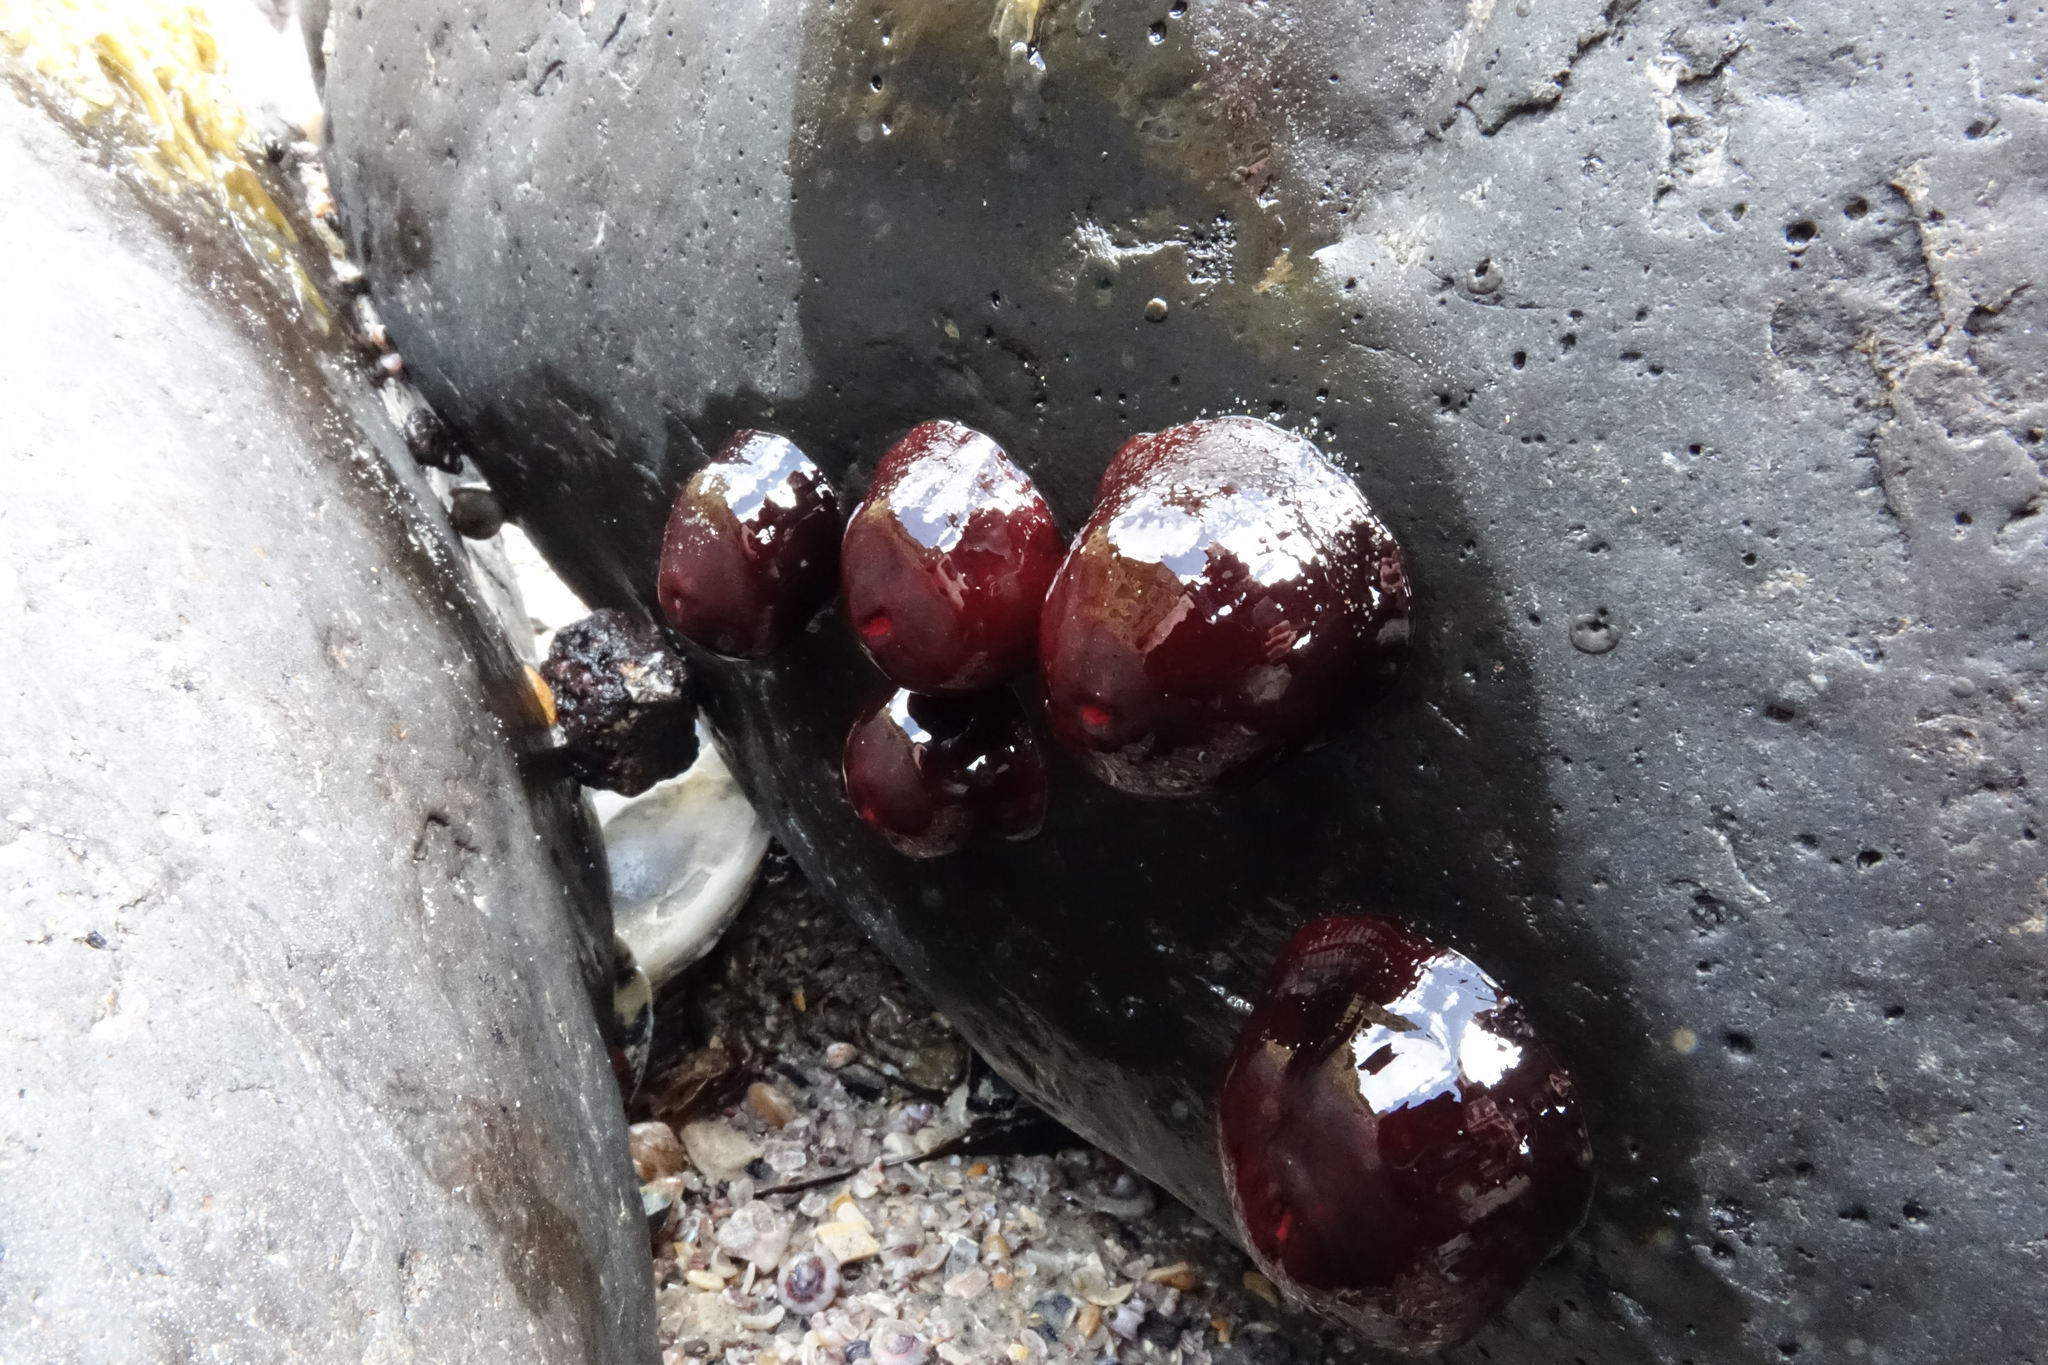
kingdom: Animalia
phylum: Cnidaria
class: Anthozoa
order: Actiniaria
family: Actiniidae
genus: Actinia
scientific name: Actinia tenebrosa
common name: Waratah anemone
